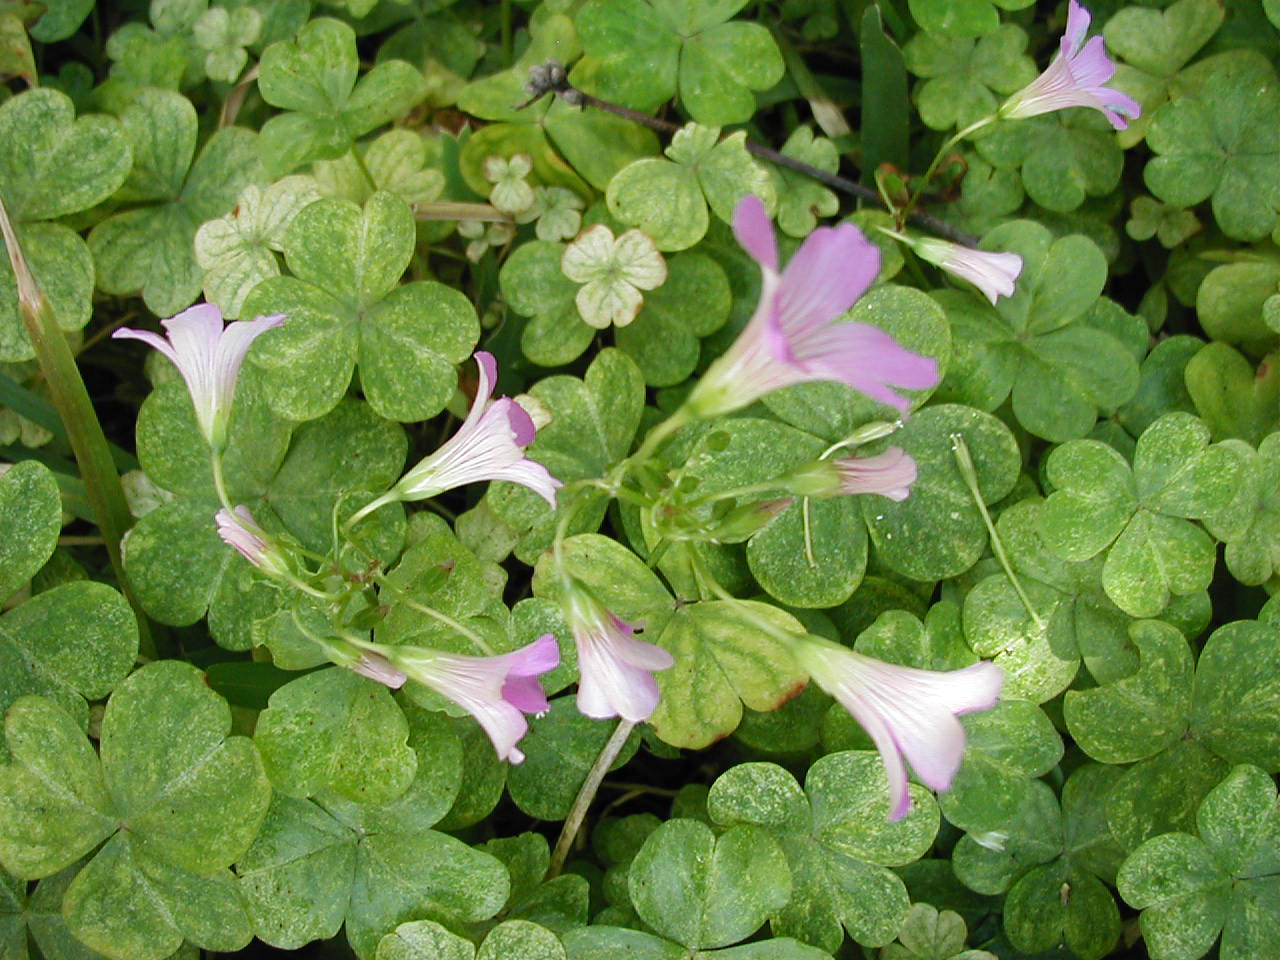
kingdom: Plantae
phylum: Tracheophyta
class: Magnoliopsida
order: Oxalidales
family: Oxalidaceae
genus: Oxalis
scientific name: Oxalis debilis
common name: Large-flowered pink-sorrel
